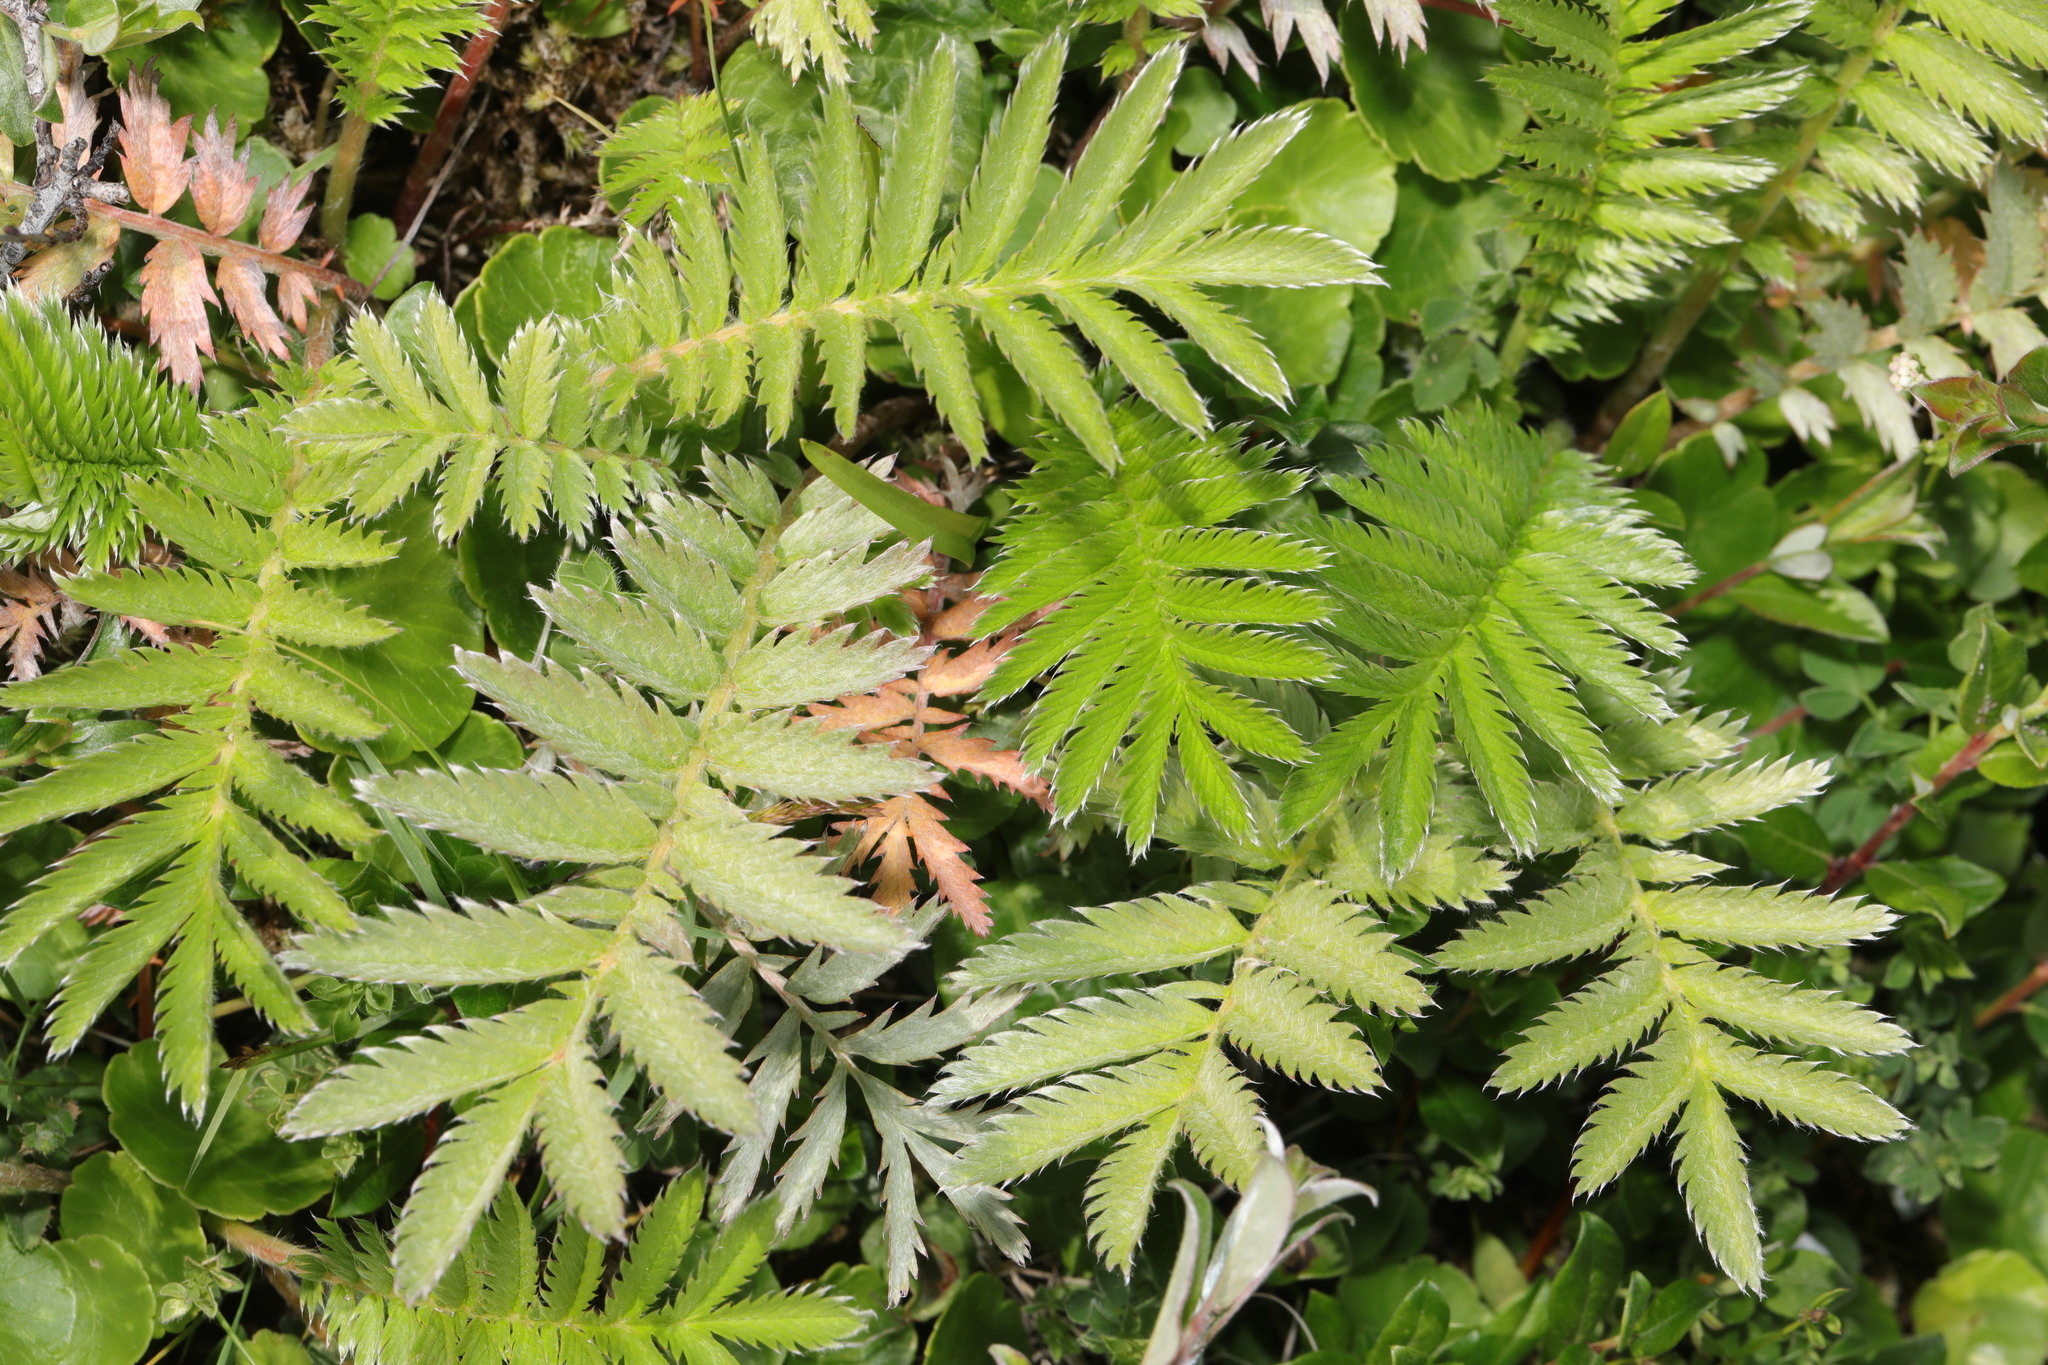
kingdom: Plantae
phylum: Tracheophyta
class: Magnoliopsida
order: Rosales
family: Rosaceae
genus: Argentina
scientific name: Argentina anserina
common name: Common silverweed
